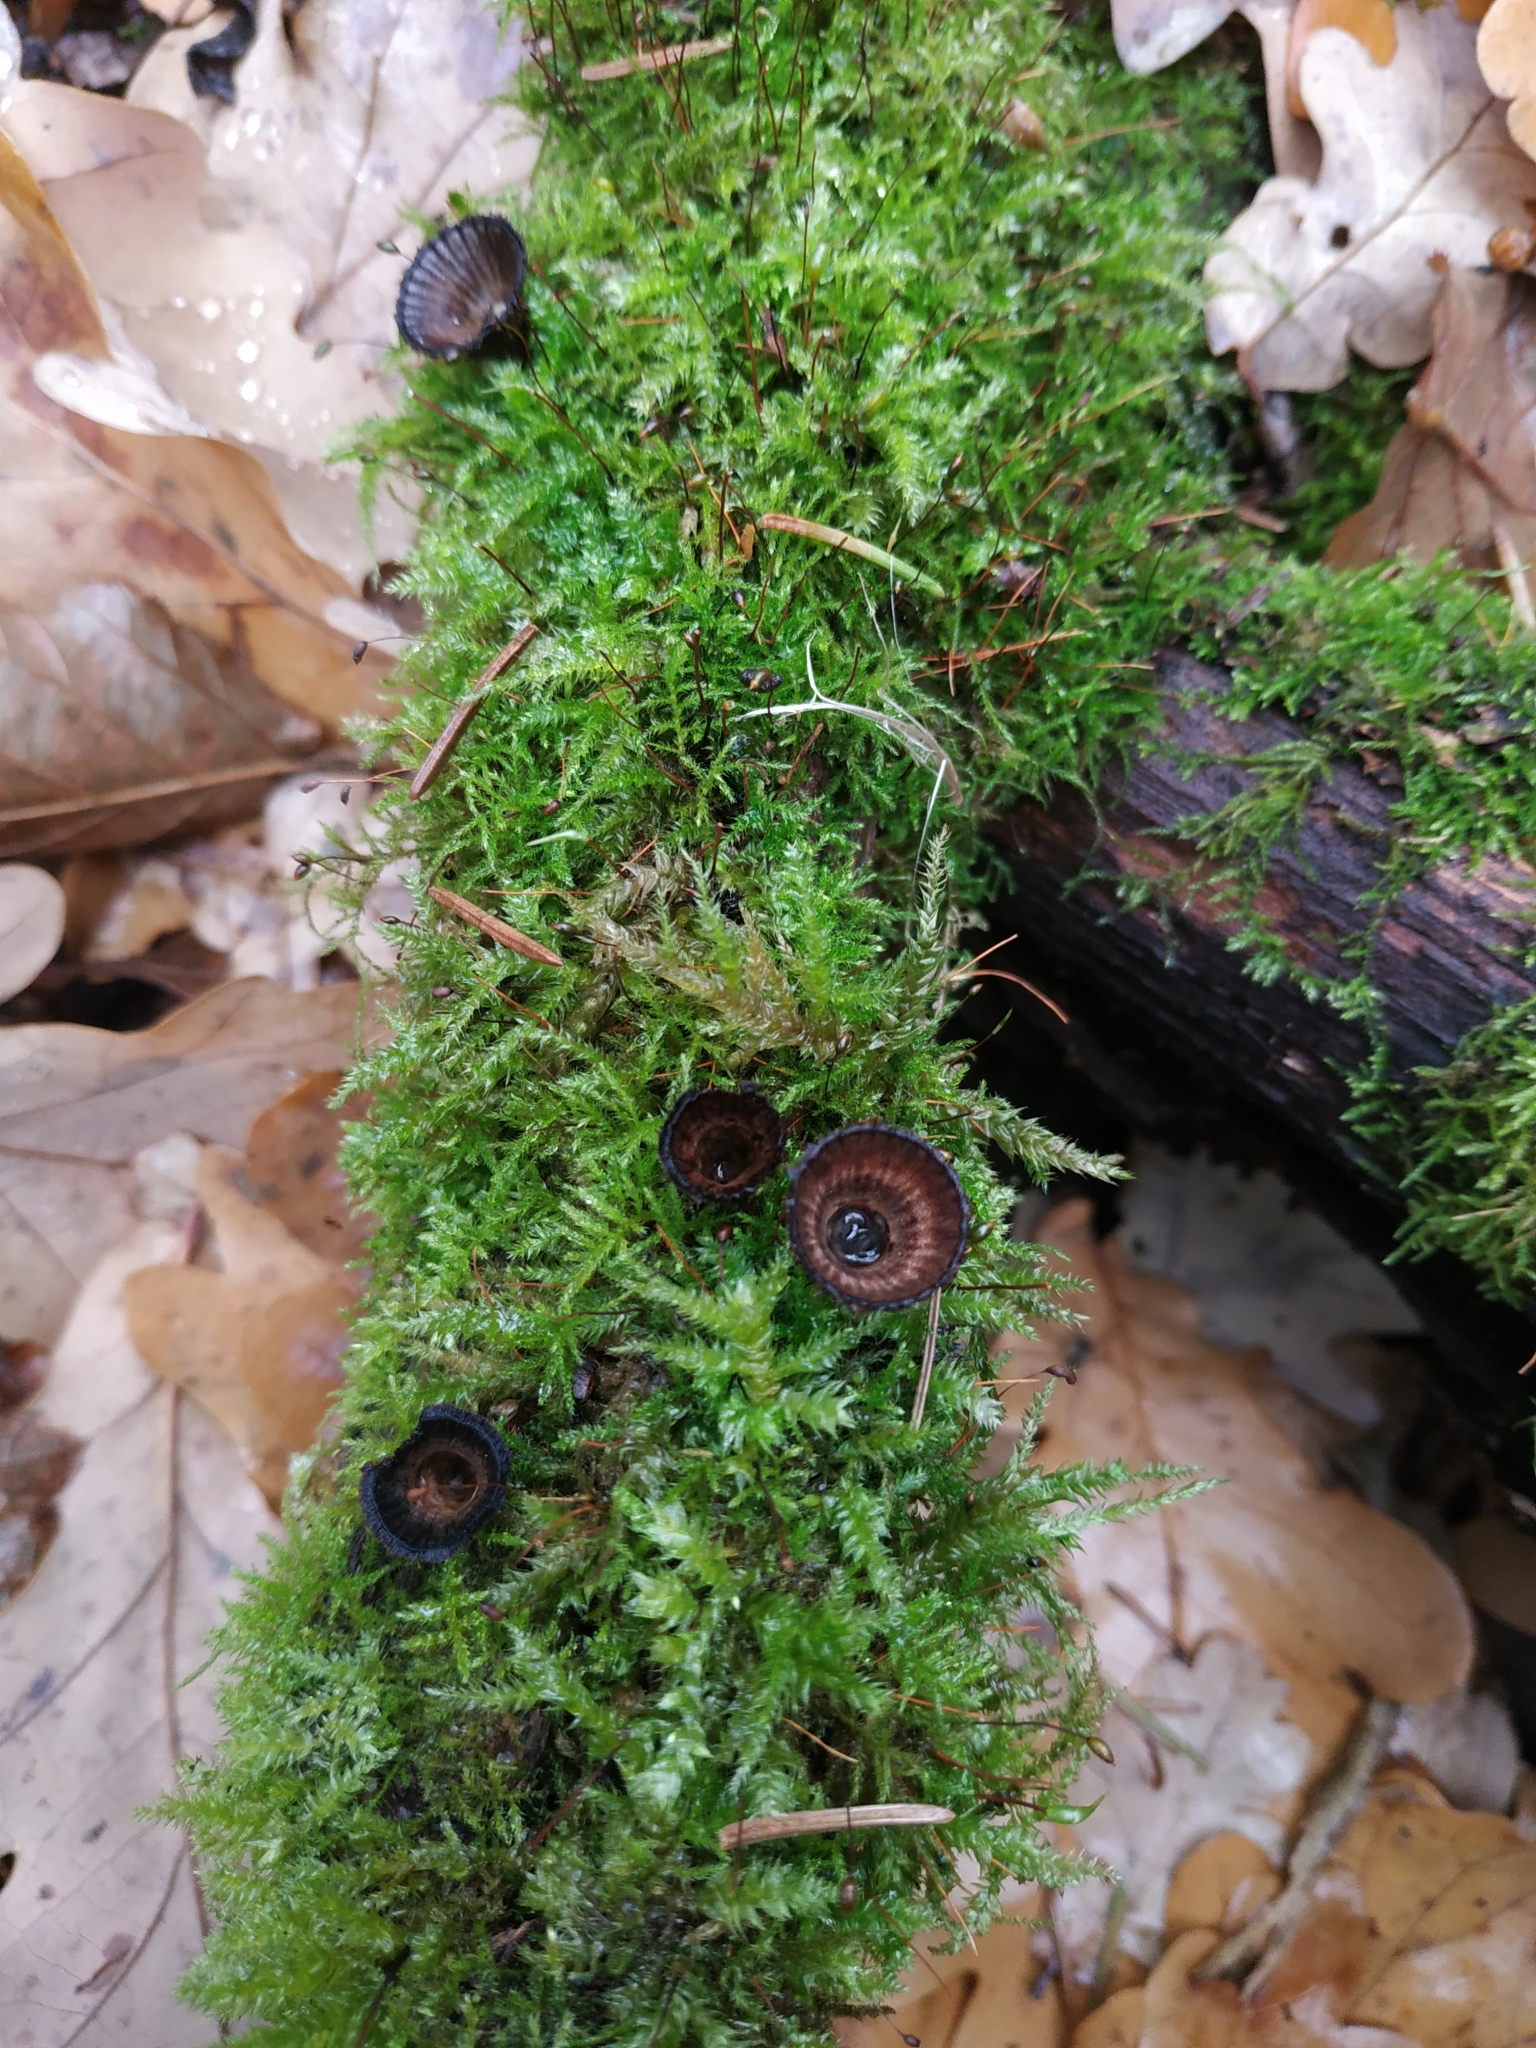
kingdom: Fungi
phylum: Basidiomycota
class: Agaricomycetes
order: Agaricales
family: Agaricaceae
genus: Cyathus
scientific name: Cyathus striatus
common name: Fluted bird's nest
